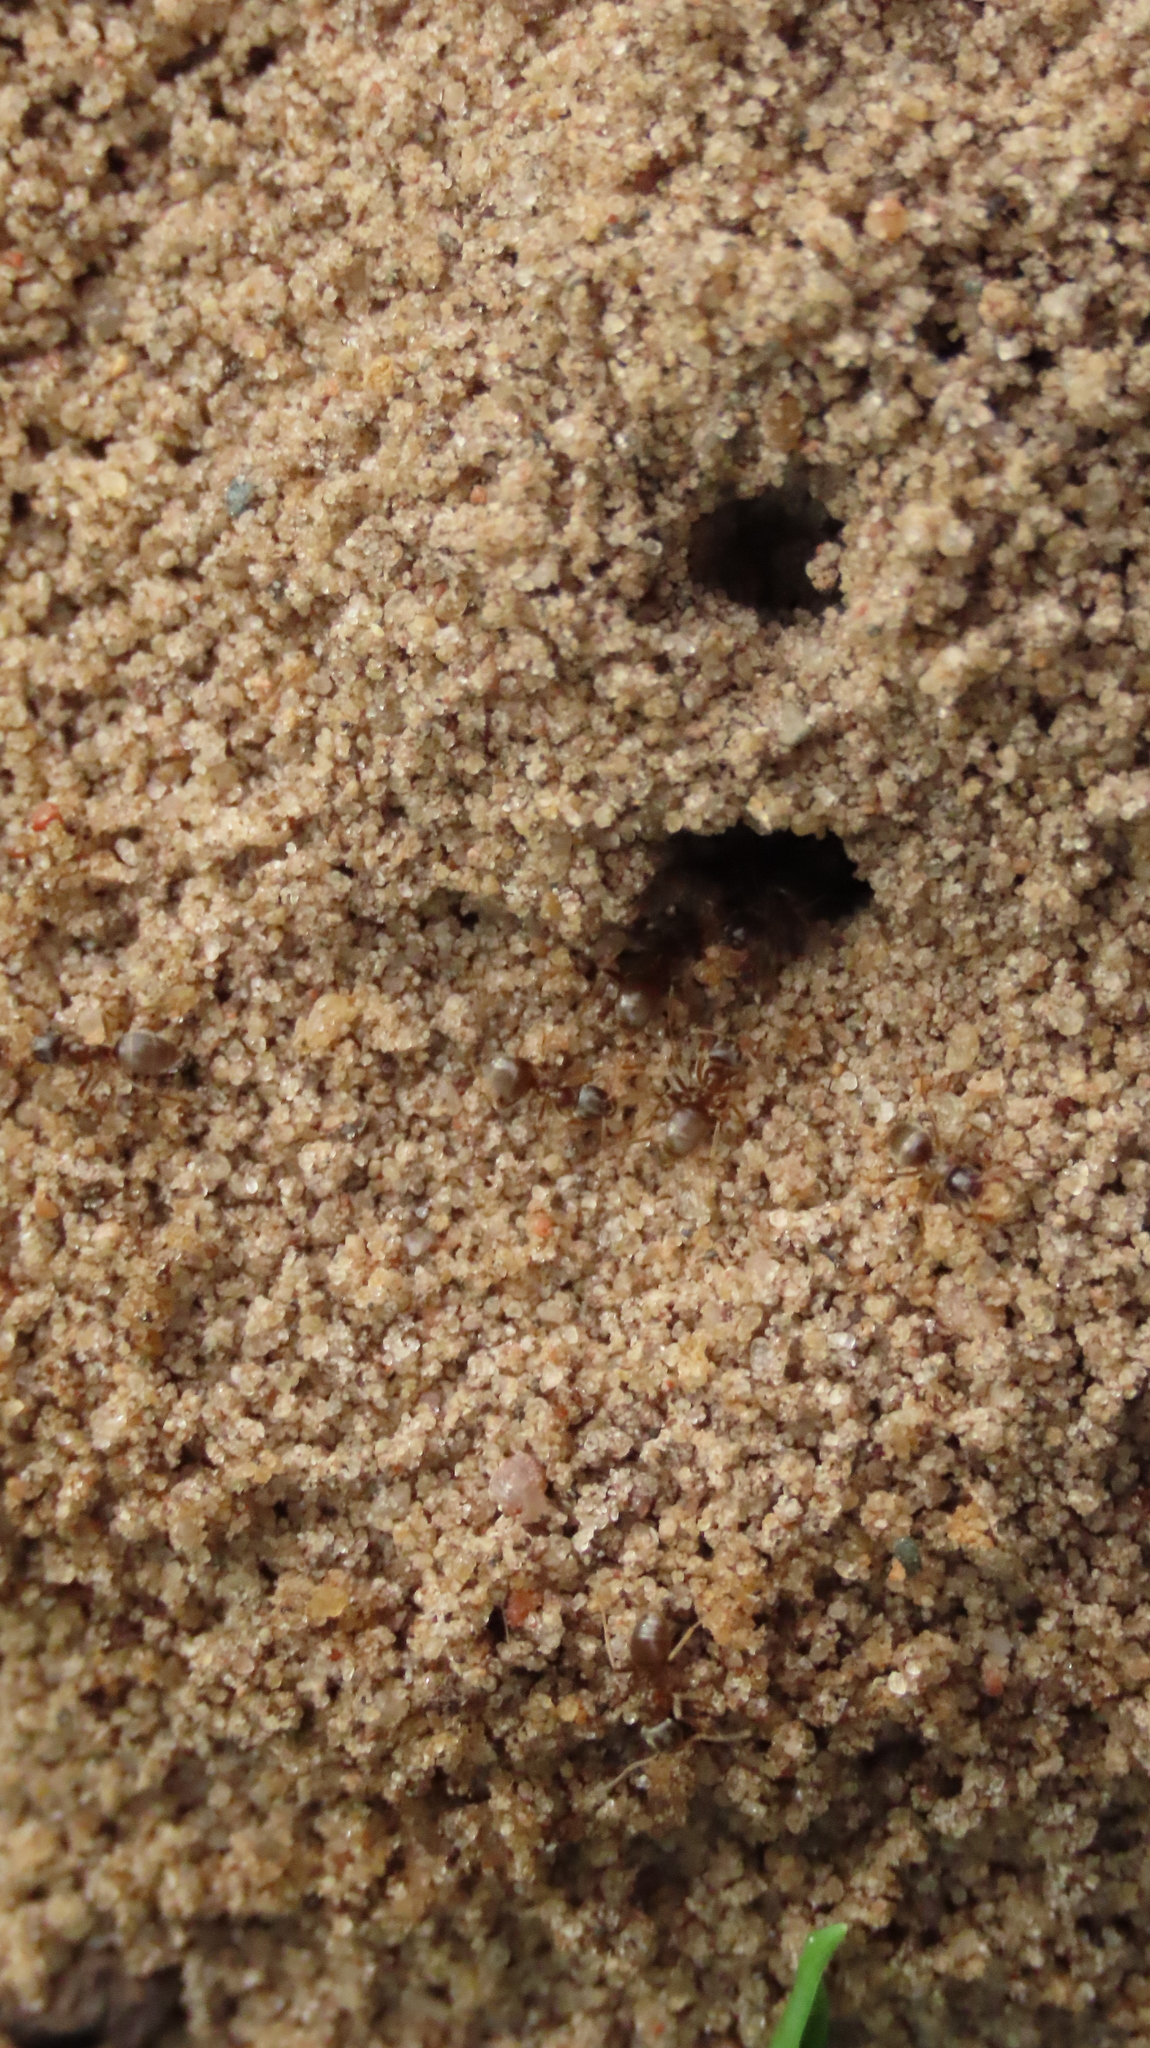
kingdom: Animalia
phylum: Arthropoda
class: Insecta
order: Hymenoptera
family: Formicidae
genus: Lasius
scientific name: Lasius neoniger
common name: Turfgrass ant
